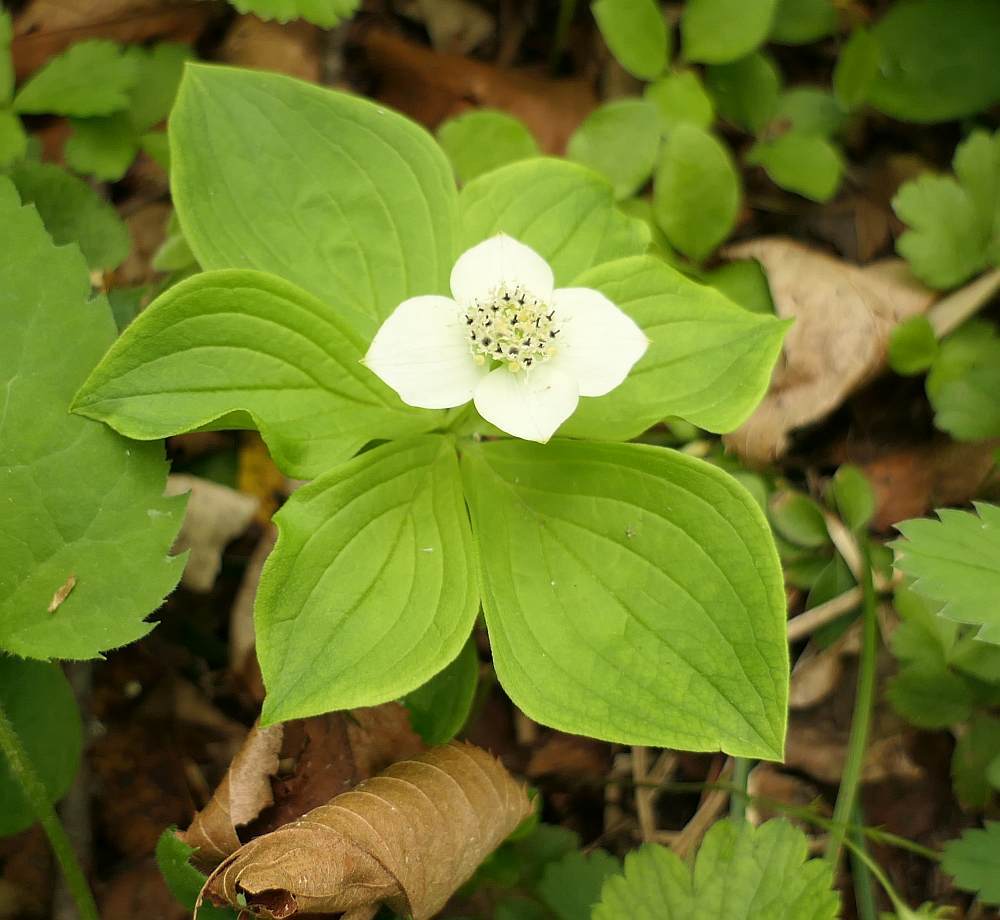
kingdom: Plantae
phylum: Tracheophyta
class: Magnoliopsida
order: Cornales
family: Cornaceae
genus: Cornus
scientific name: Cornus canadensis
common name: Creeping dogwood
